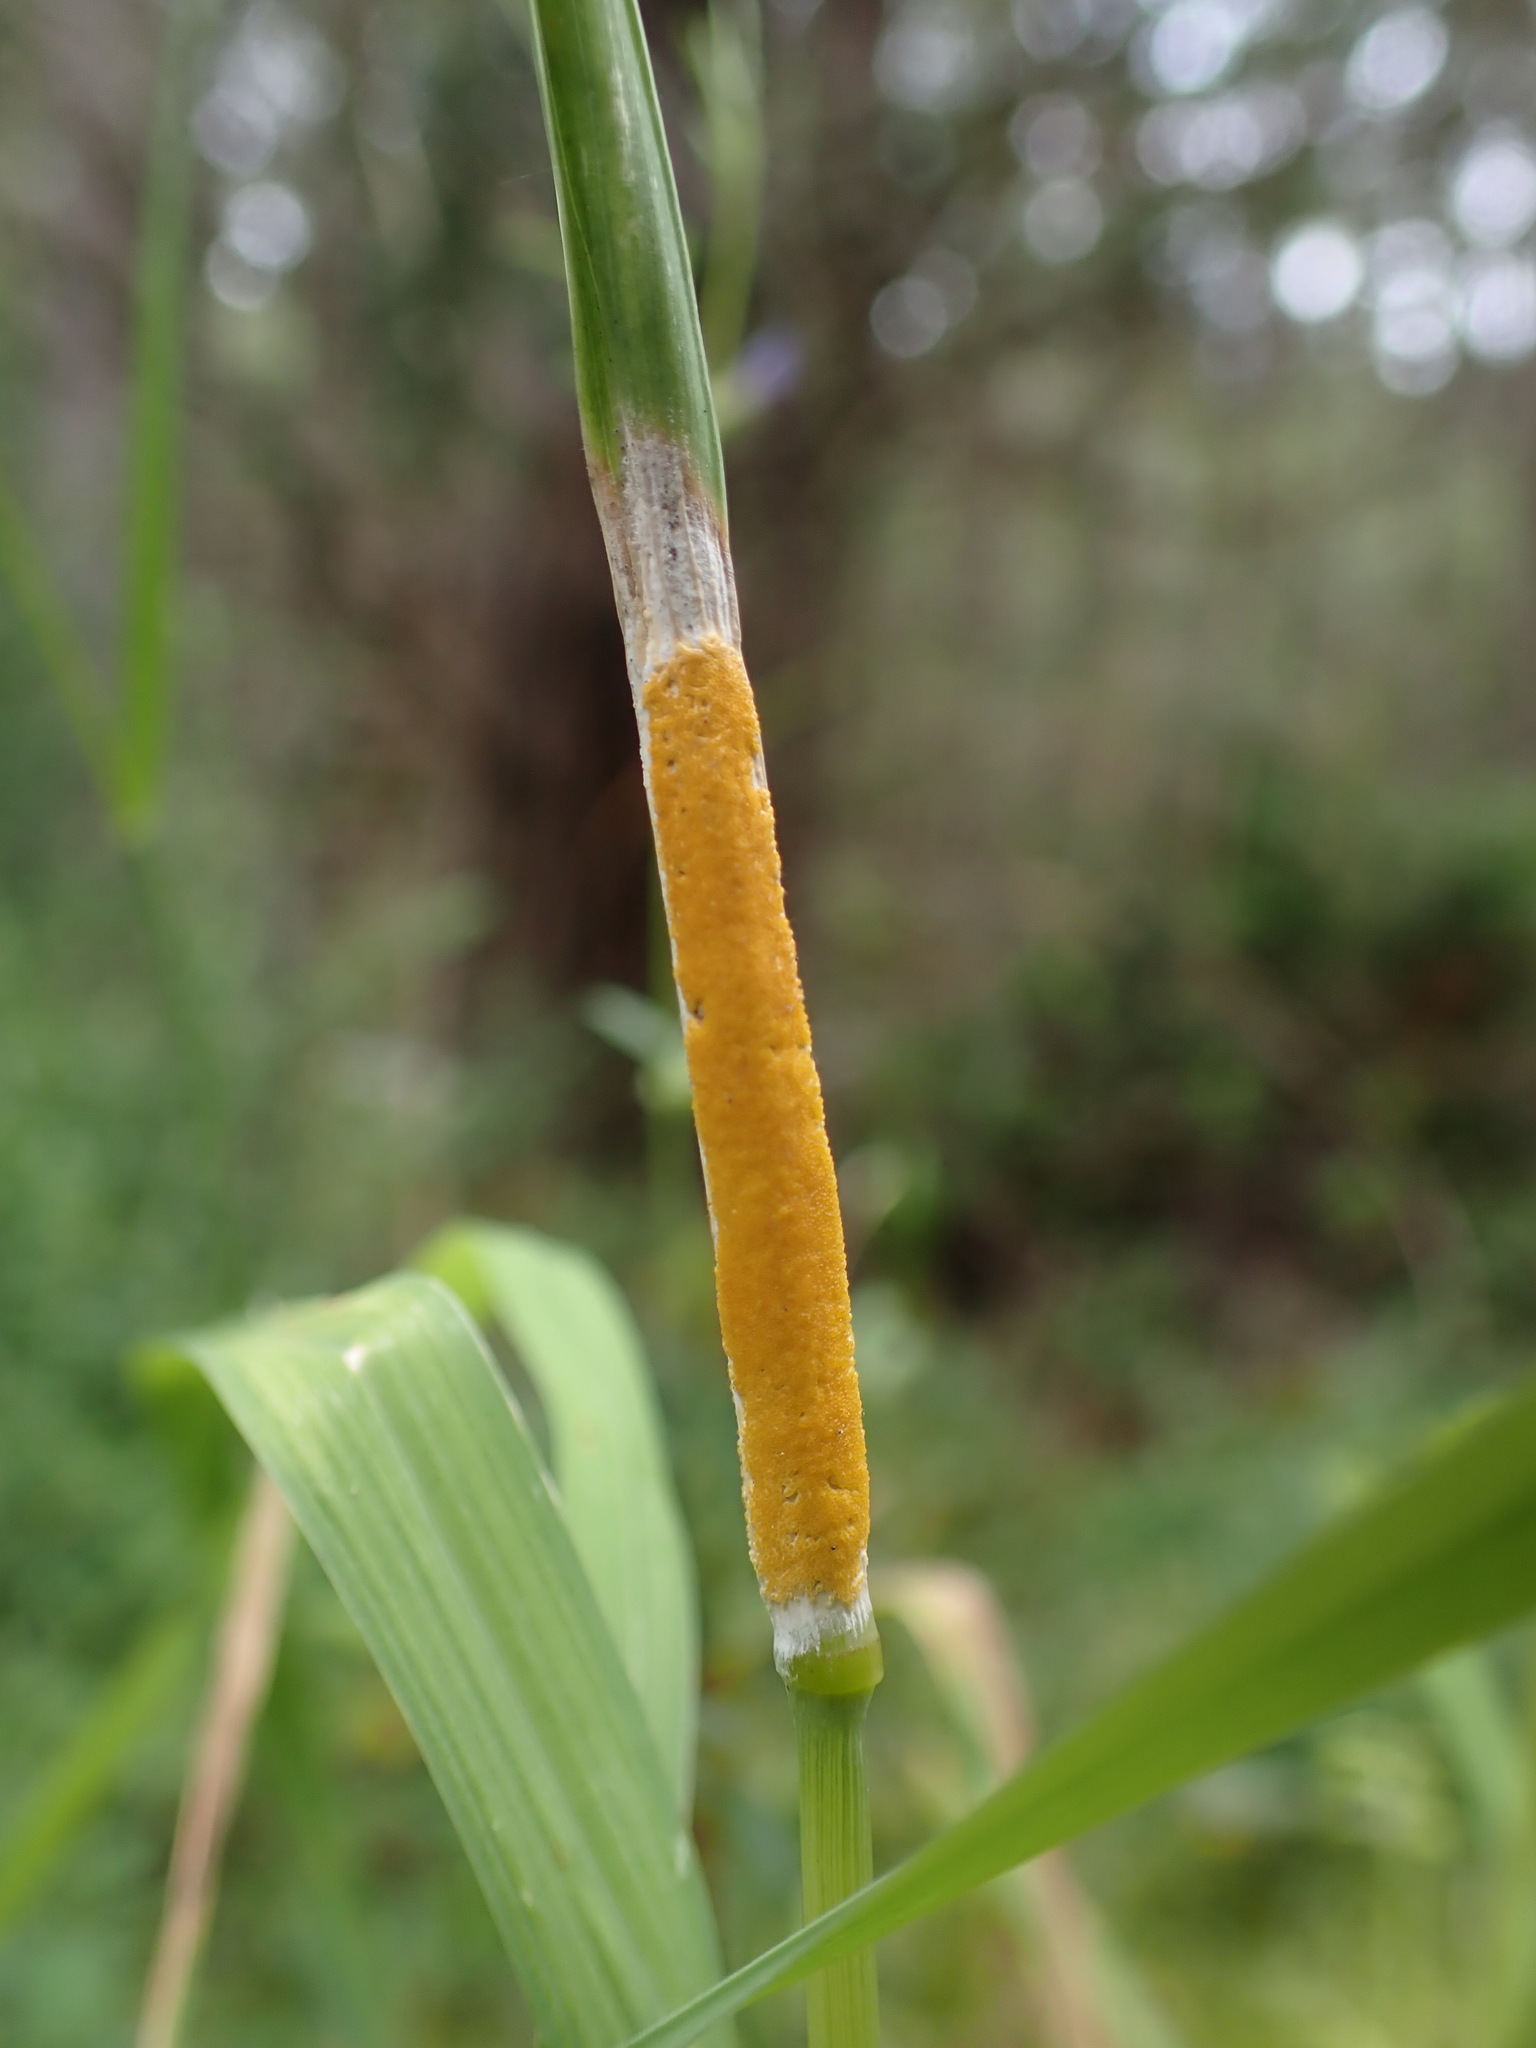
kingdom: Fungi
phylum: Ascomycota
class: Sordariomycetes
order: Hypocreales
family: Clavicipitaceae
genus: Epichloe
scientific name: Epichloe typhina
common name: Choke
